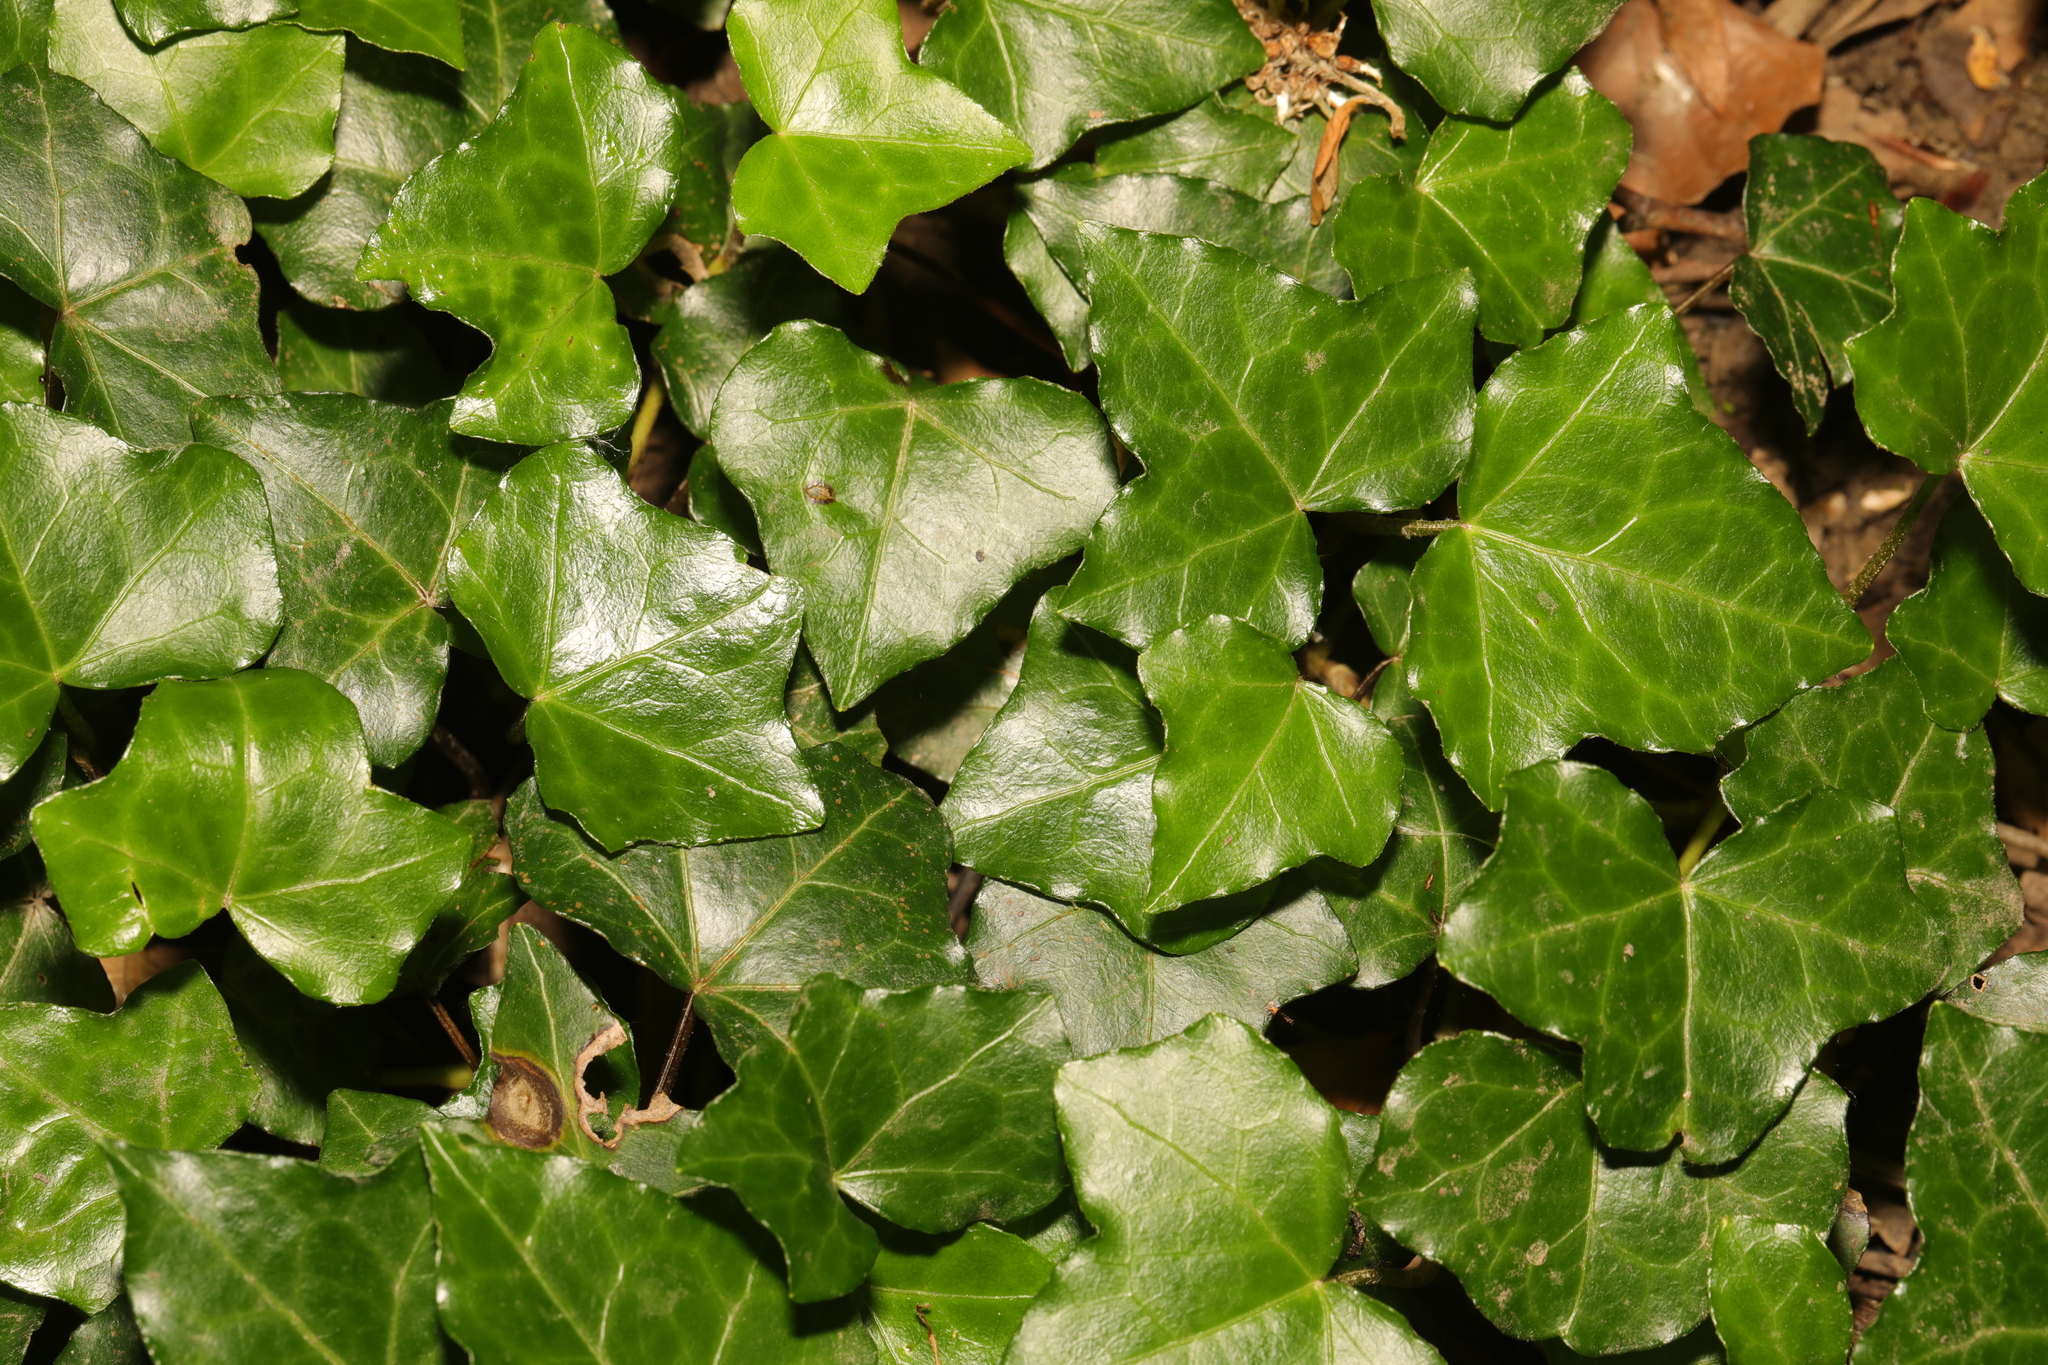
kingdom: Plantae
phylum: Tracheophyta
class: Magnoliopsida
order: Apiales
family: Araliaceae
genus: Hedera
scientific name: Hedera helix
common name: Ivy
